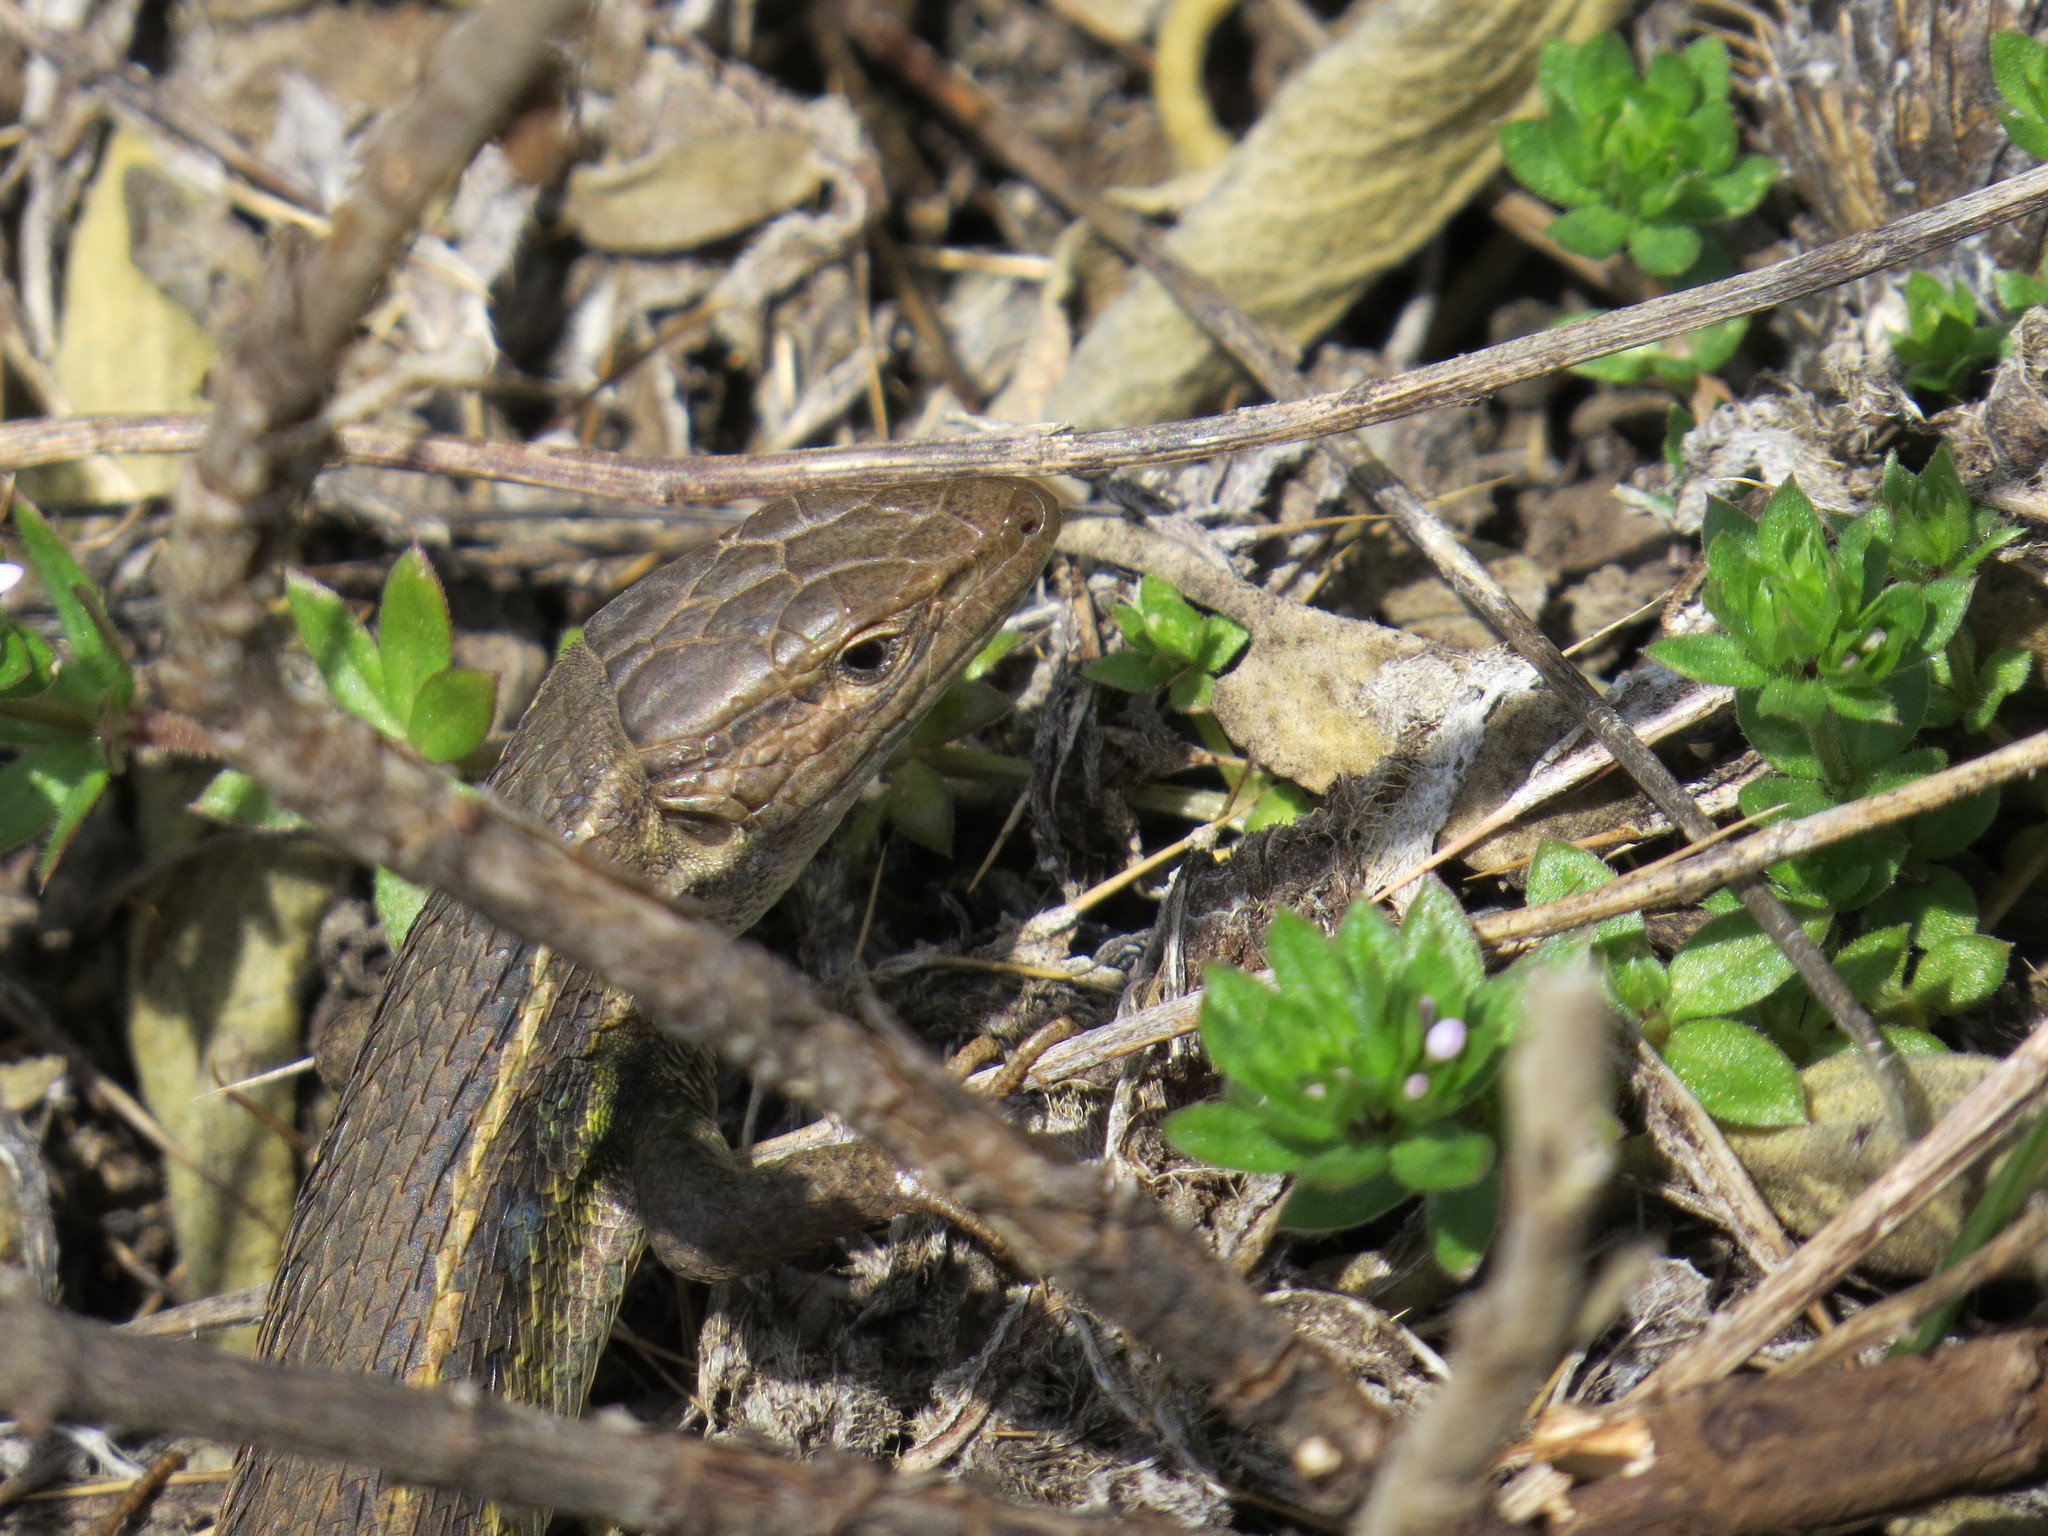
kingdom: Animalia
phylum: Chordata
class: Squamata
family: Lacertidae
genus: Psammodromus
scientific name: Psammodromus algirus
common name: Algerian psammodromus
